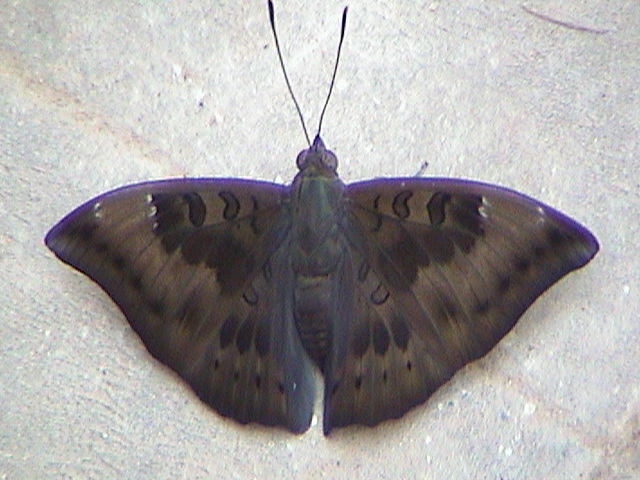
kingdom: Animalia
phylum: Arthropoda
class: Insecta
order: Lepidoptera
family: Nymphalidae
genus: Euthalia
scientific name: Euthalia aconthea
